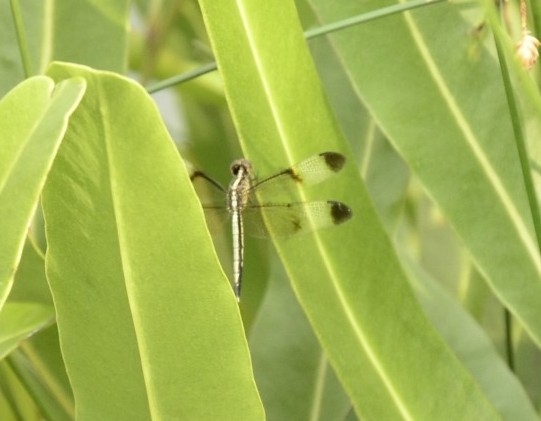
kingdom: Animalia
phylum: Arthropoda
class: Insecta
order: Odonata
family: Libellulidae
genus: Neurothemis
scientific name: Neurothemis tullia
